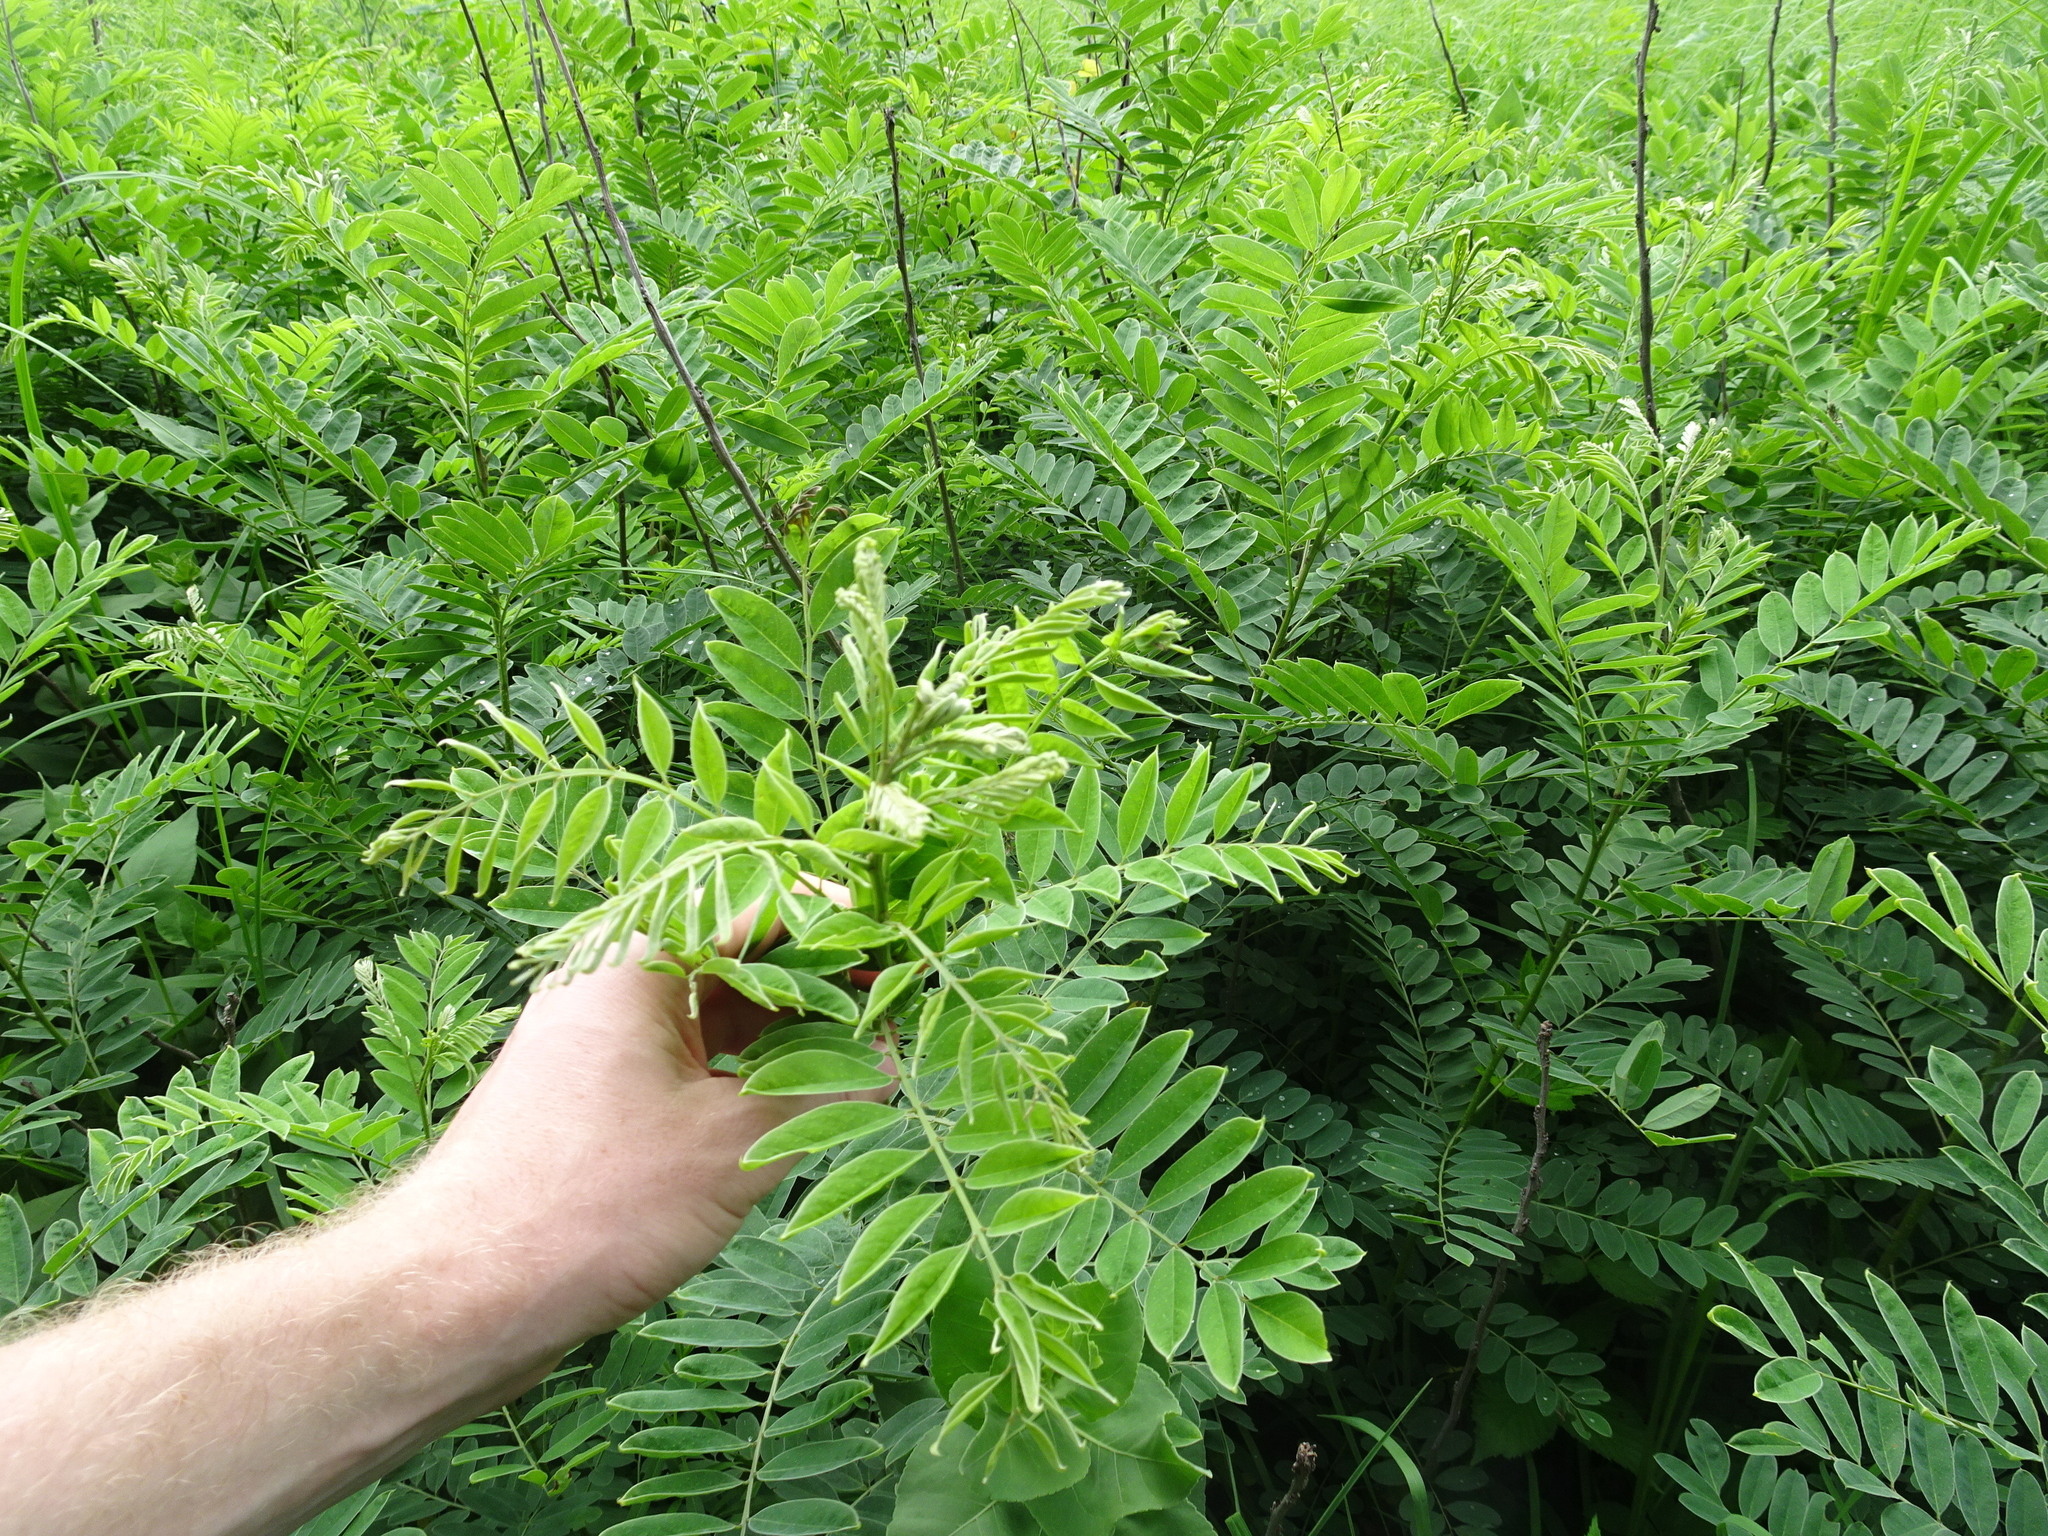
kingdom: Plantae
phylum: Tracheophyta
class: Magnoliopsida
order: Fabales
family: Fabaceae
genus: Amorpha
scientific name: Amorpha fruticosa
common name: False indigo
